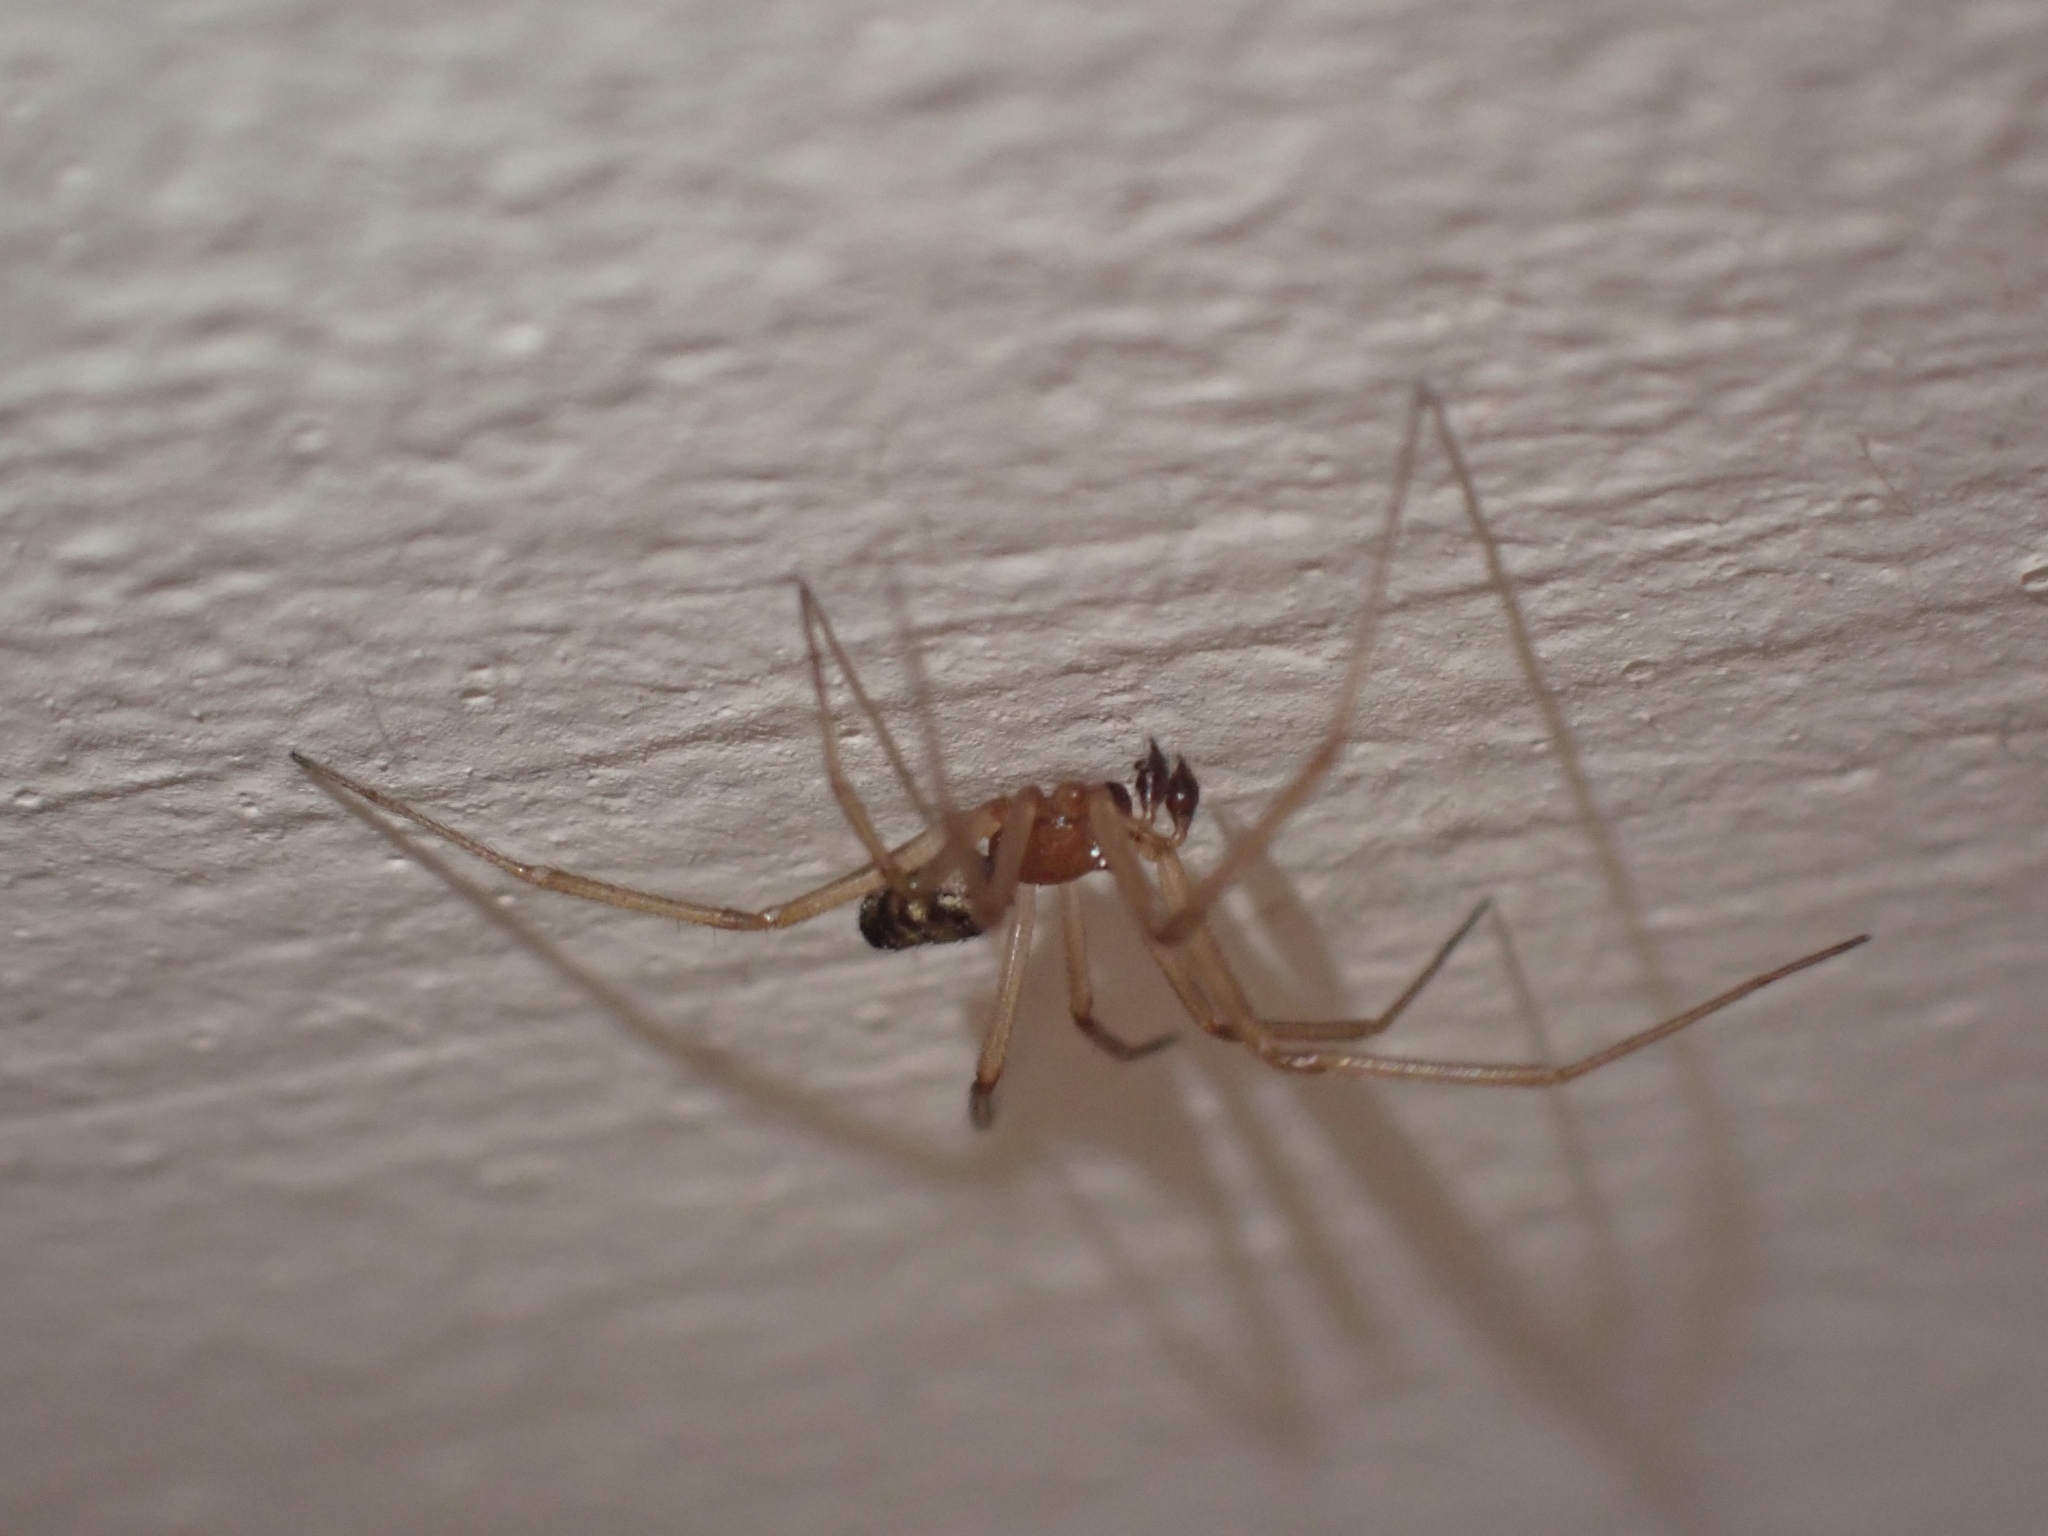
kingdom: Animalia
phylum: Arthropoda
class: Arachnida
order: Araneae
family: Theridiidae
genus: Steatoda
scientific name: Steatoda grossa
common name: False black widow
